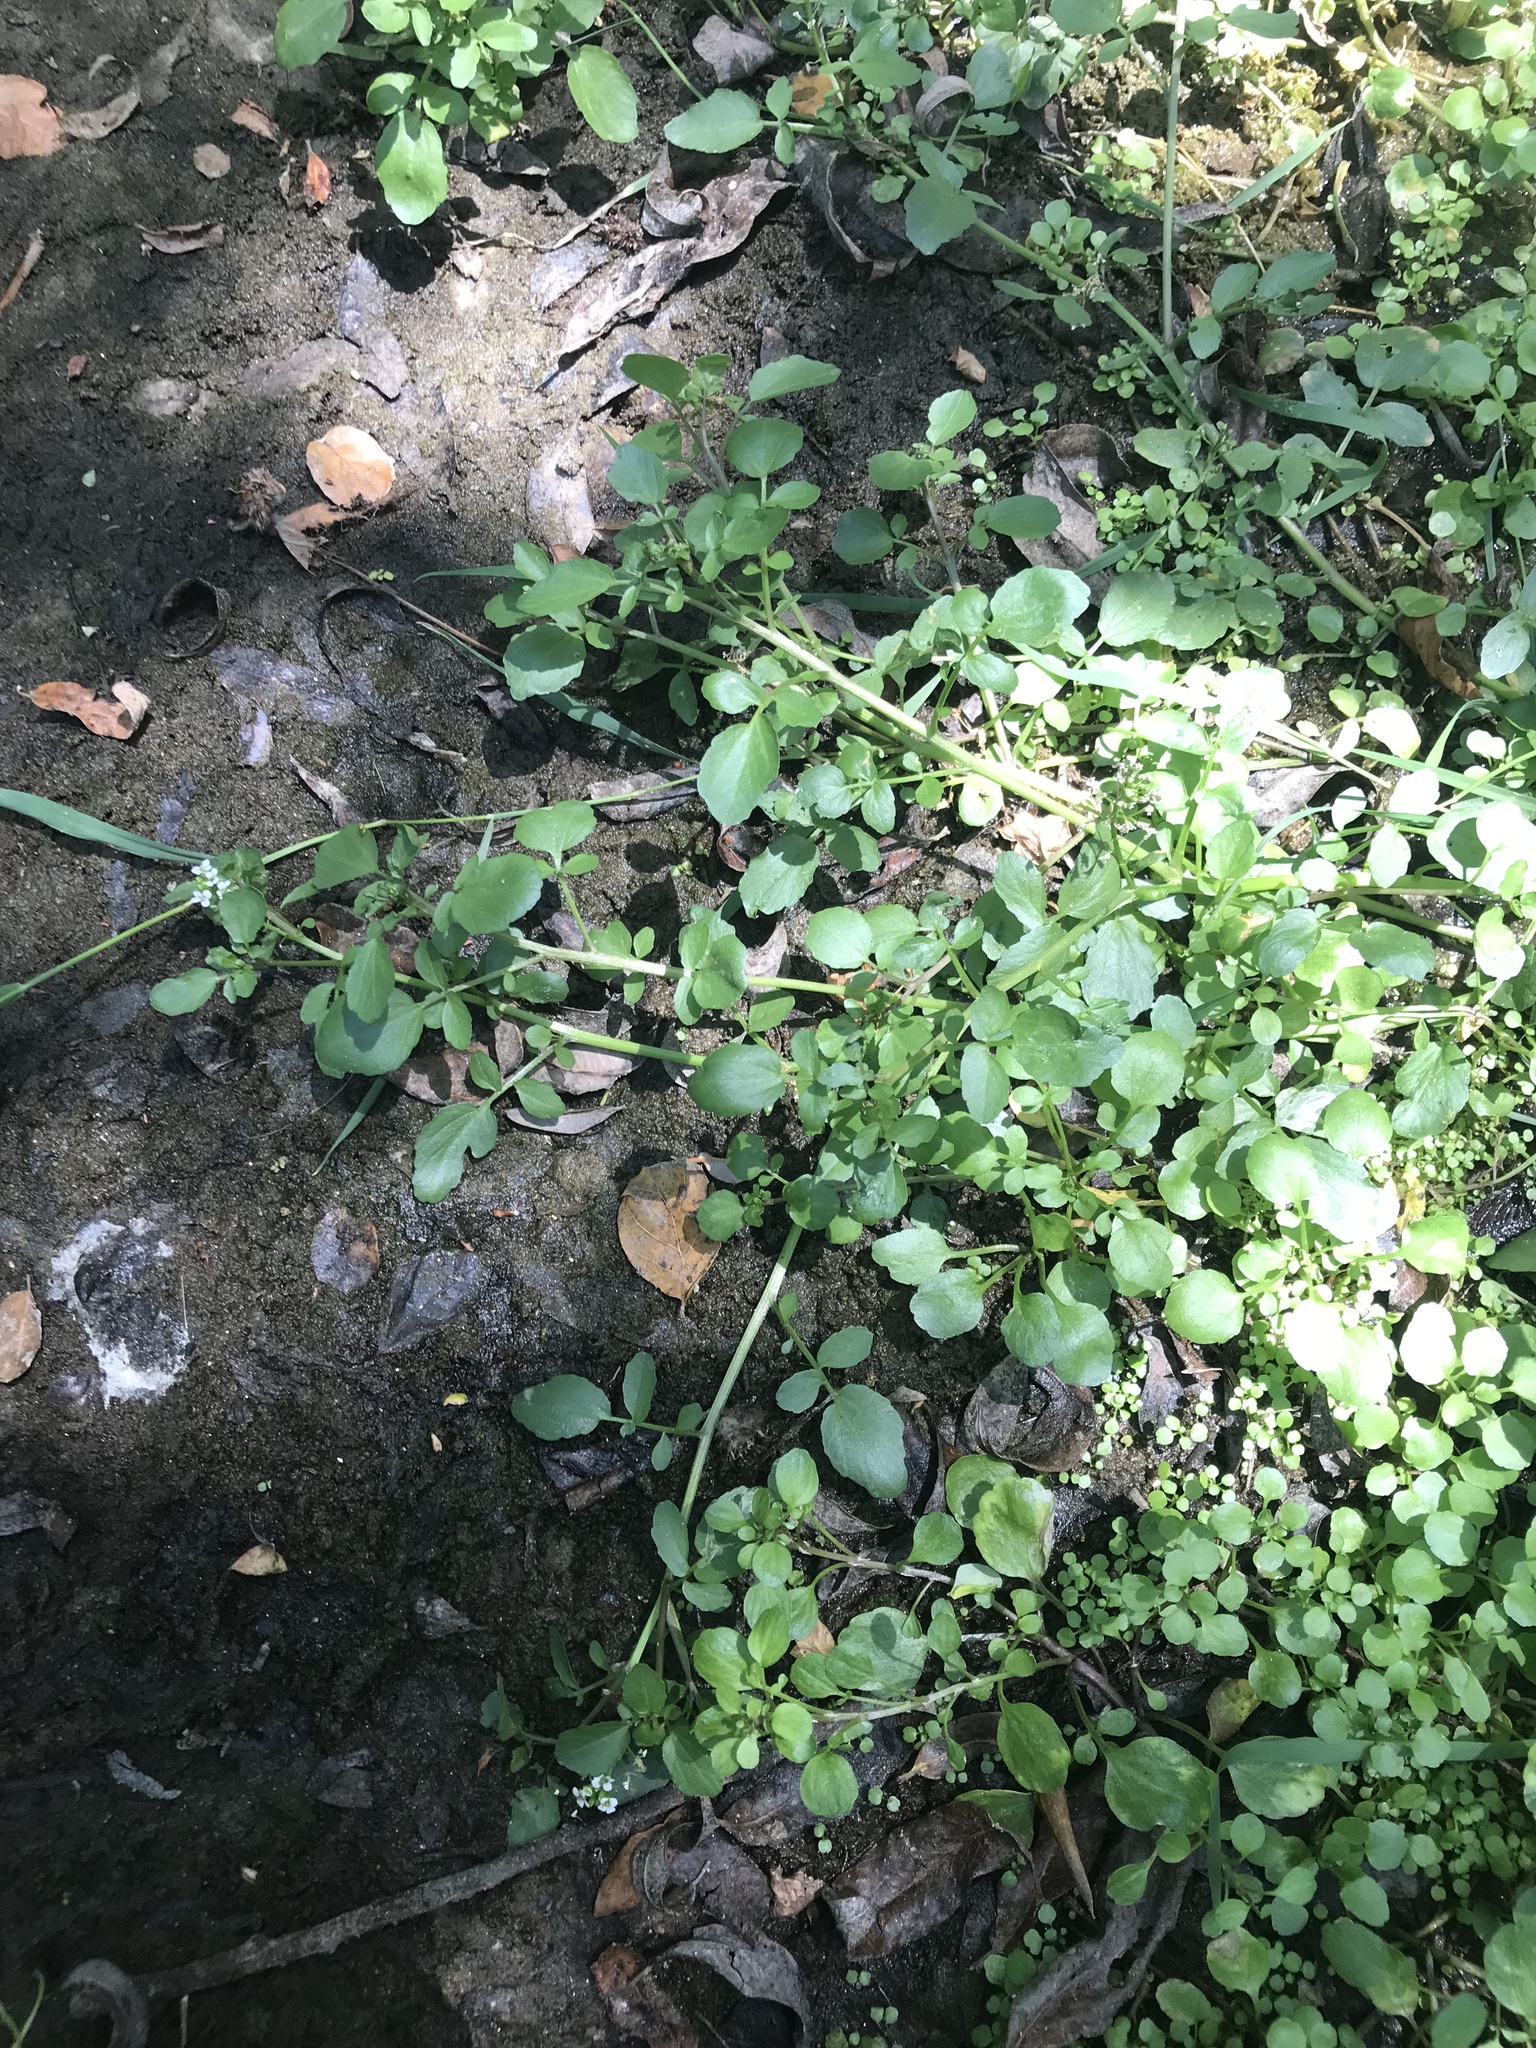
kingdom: Plantae
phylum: Tracheophyta
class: Magnoliopsida
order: Brassicales
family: Brassicaceae
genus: Nasturtium
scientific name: Nasturtium officinale
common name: Watercress
